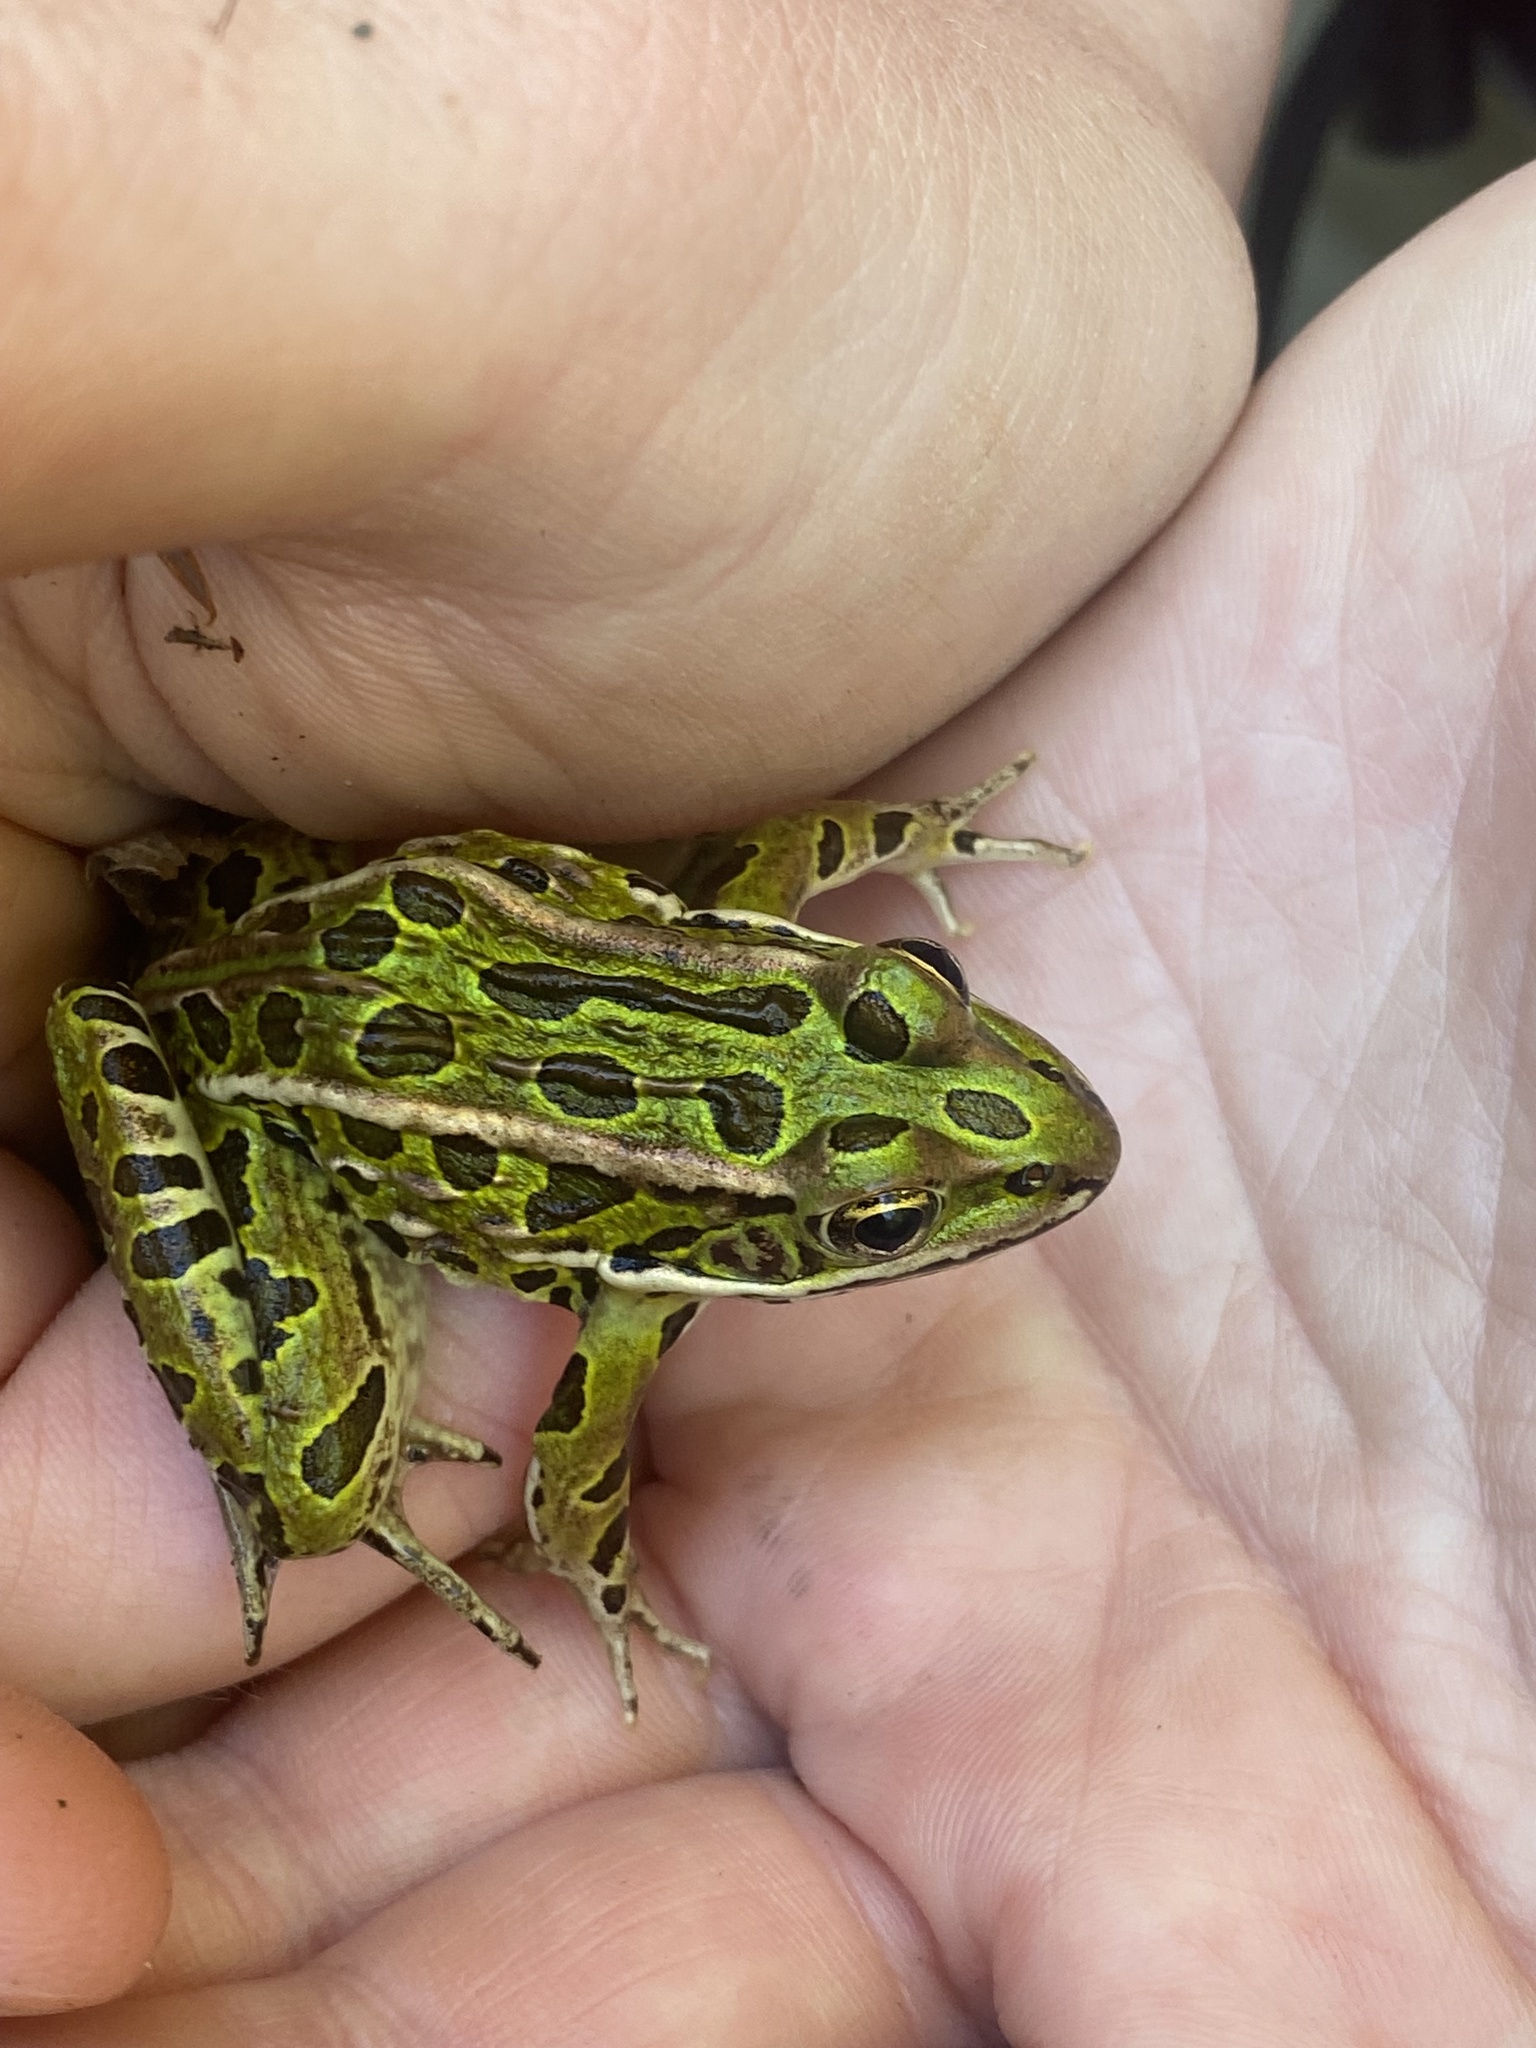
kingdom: Animalia
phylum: Chordata
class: Amphibia
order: Anura
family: Ranidae
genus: Lithobates
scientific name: Lithobates pipiens
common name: Northern leopard frog
